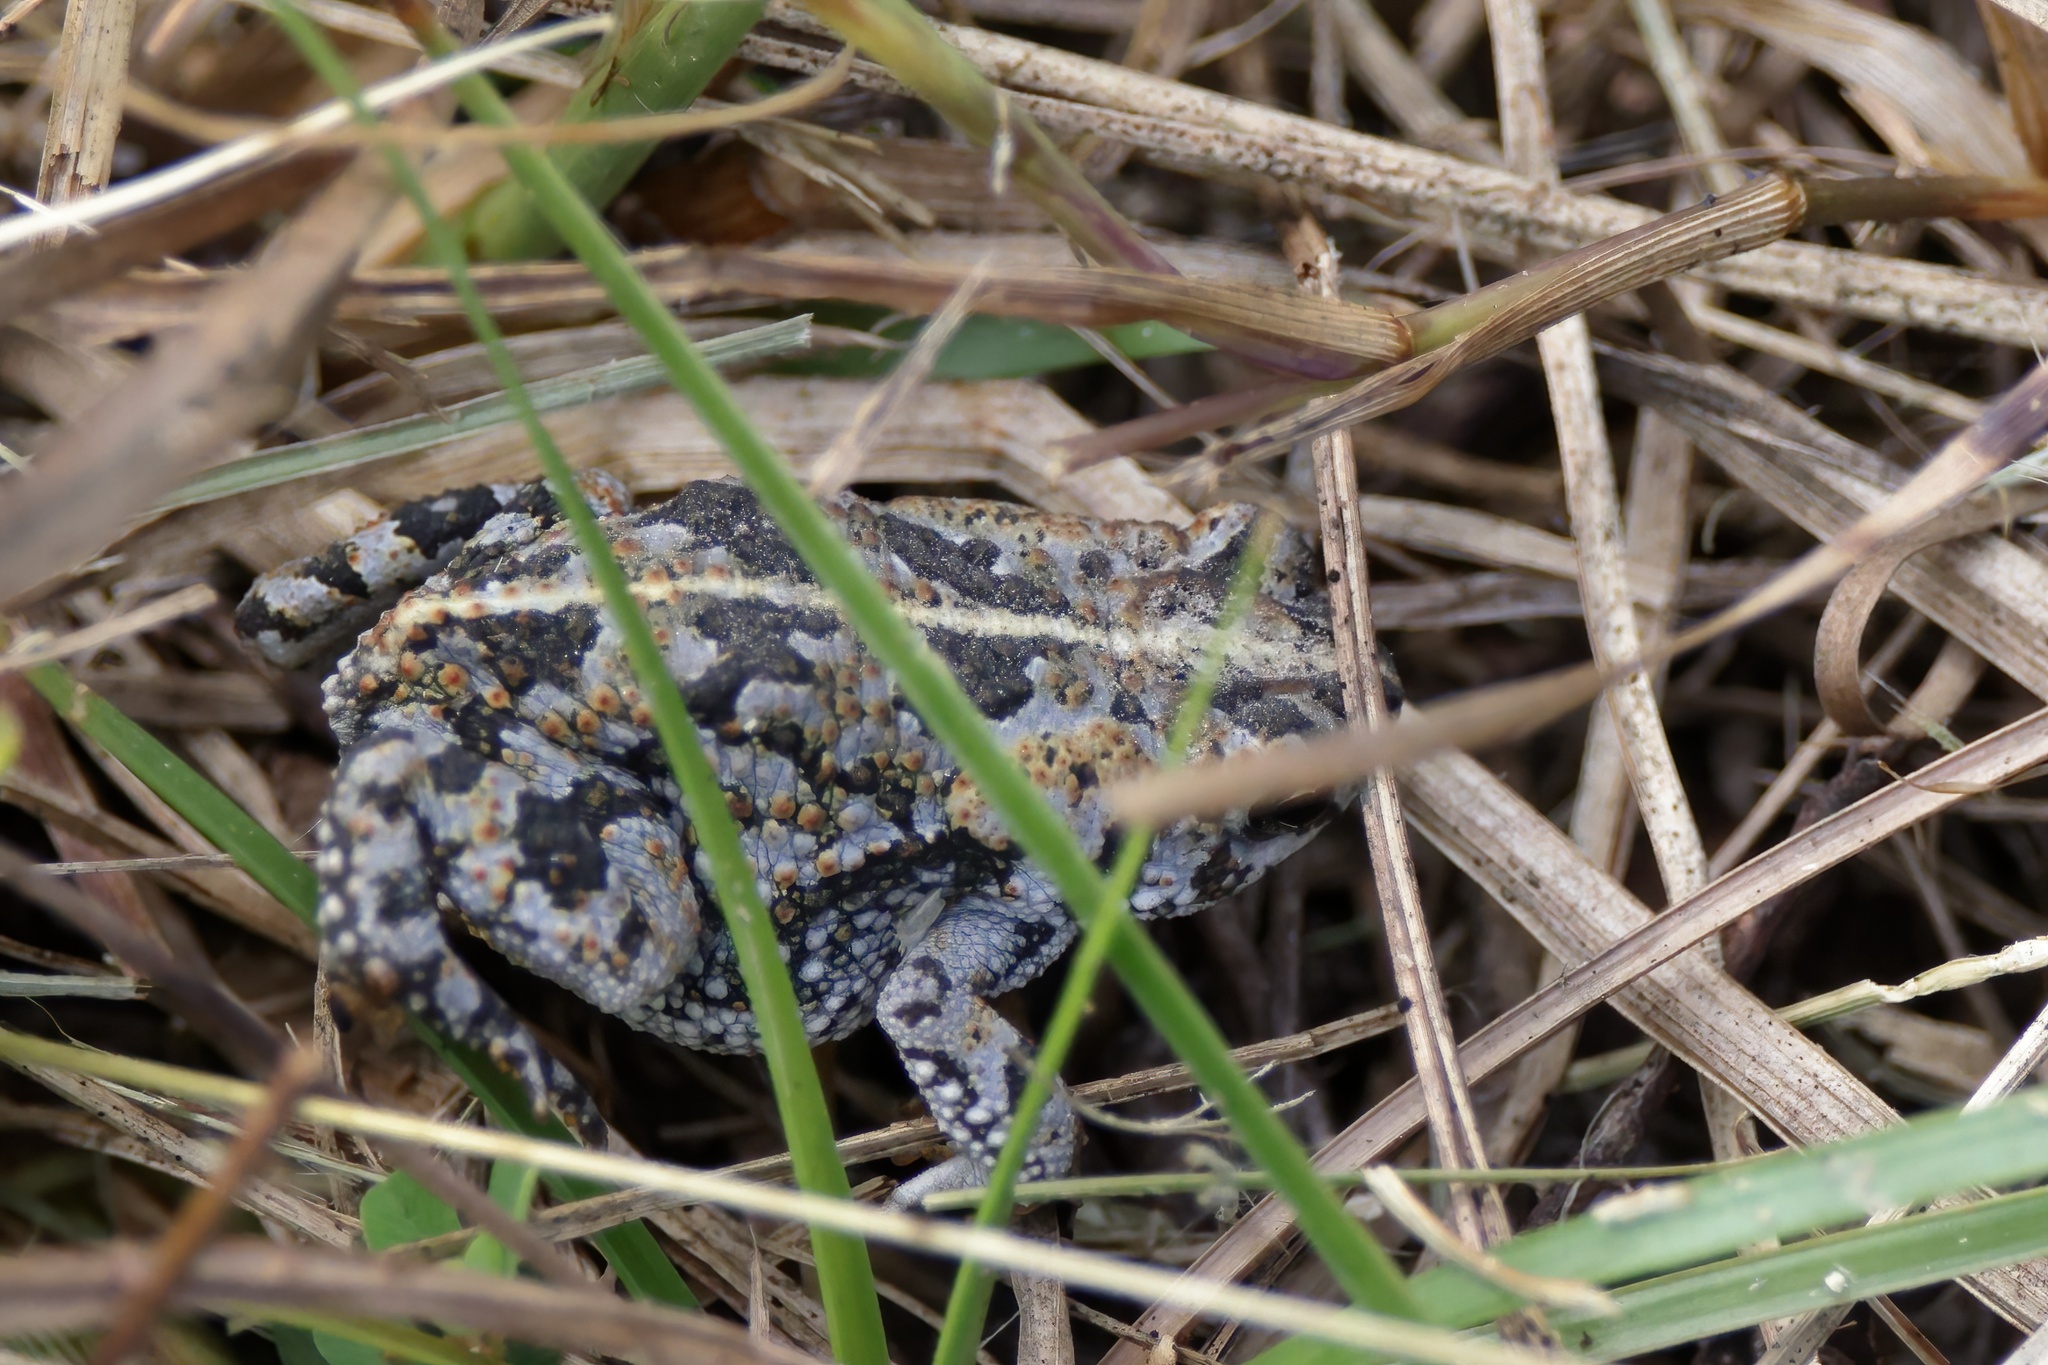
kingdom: Animalia
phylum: Chordata
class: Amphibia
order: Anura
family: Bufonidae
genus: Anaxyrus
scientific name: Anaxyrus quercicus
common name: Oak toad
